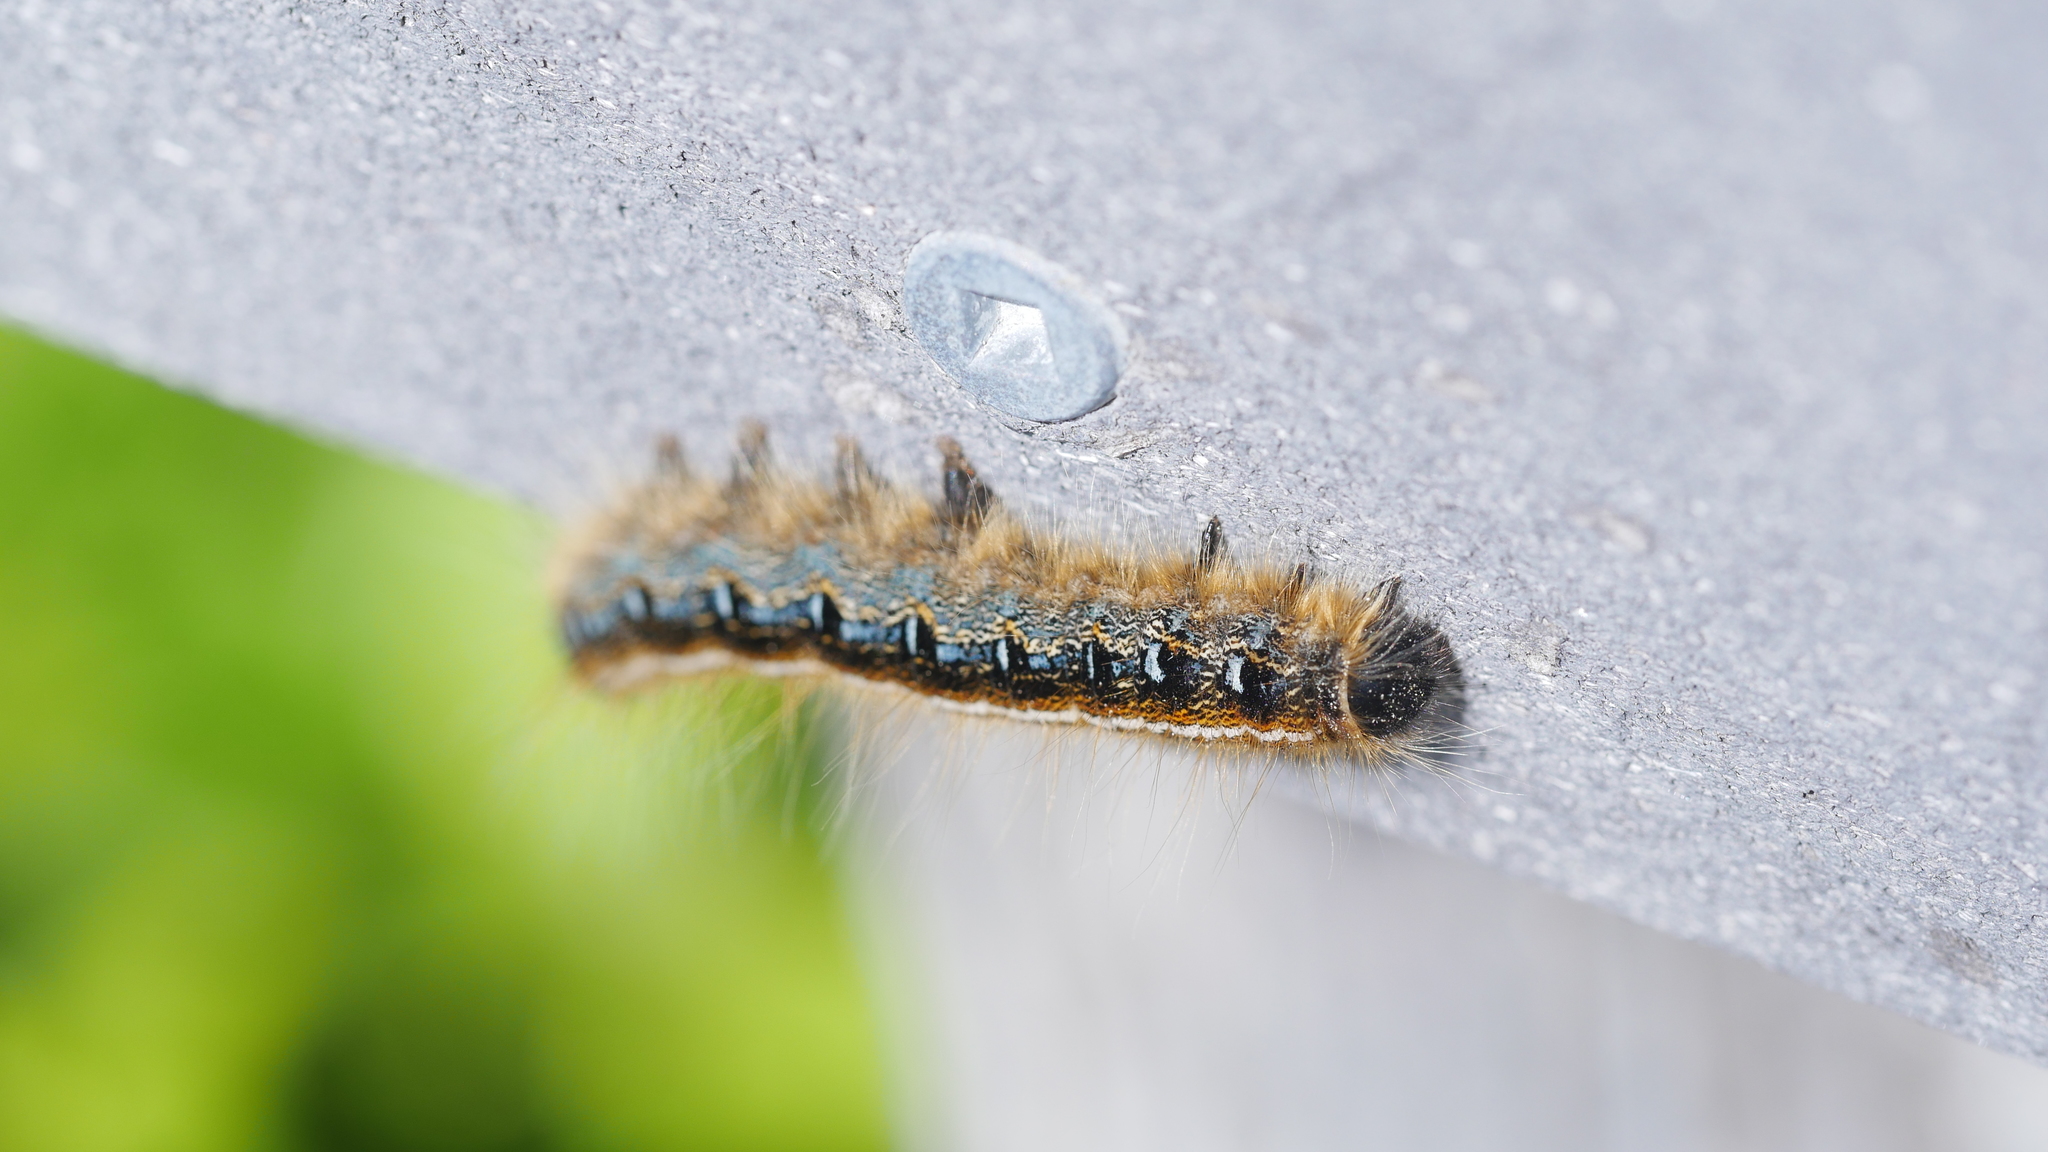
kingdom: Animalia
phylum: Arthropoda
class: Insecta
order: Lepidoptera
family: Lasiocampidae
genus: Malacosoma
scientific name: Malacosoma americana
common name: Eastern tent caterpillar moth
